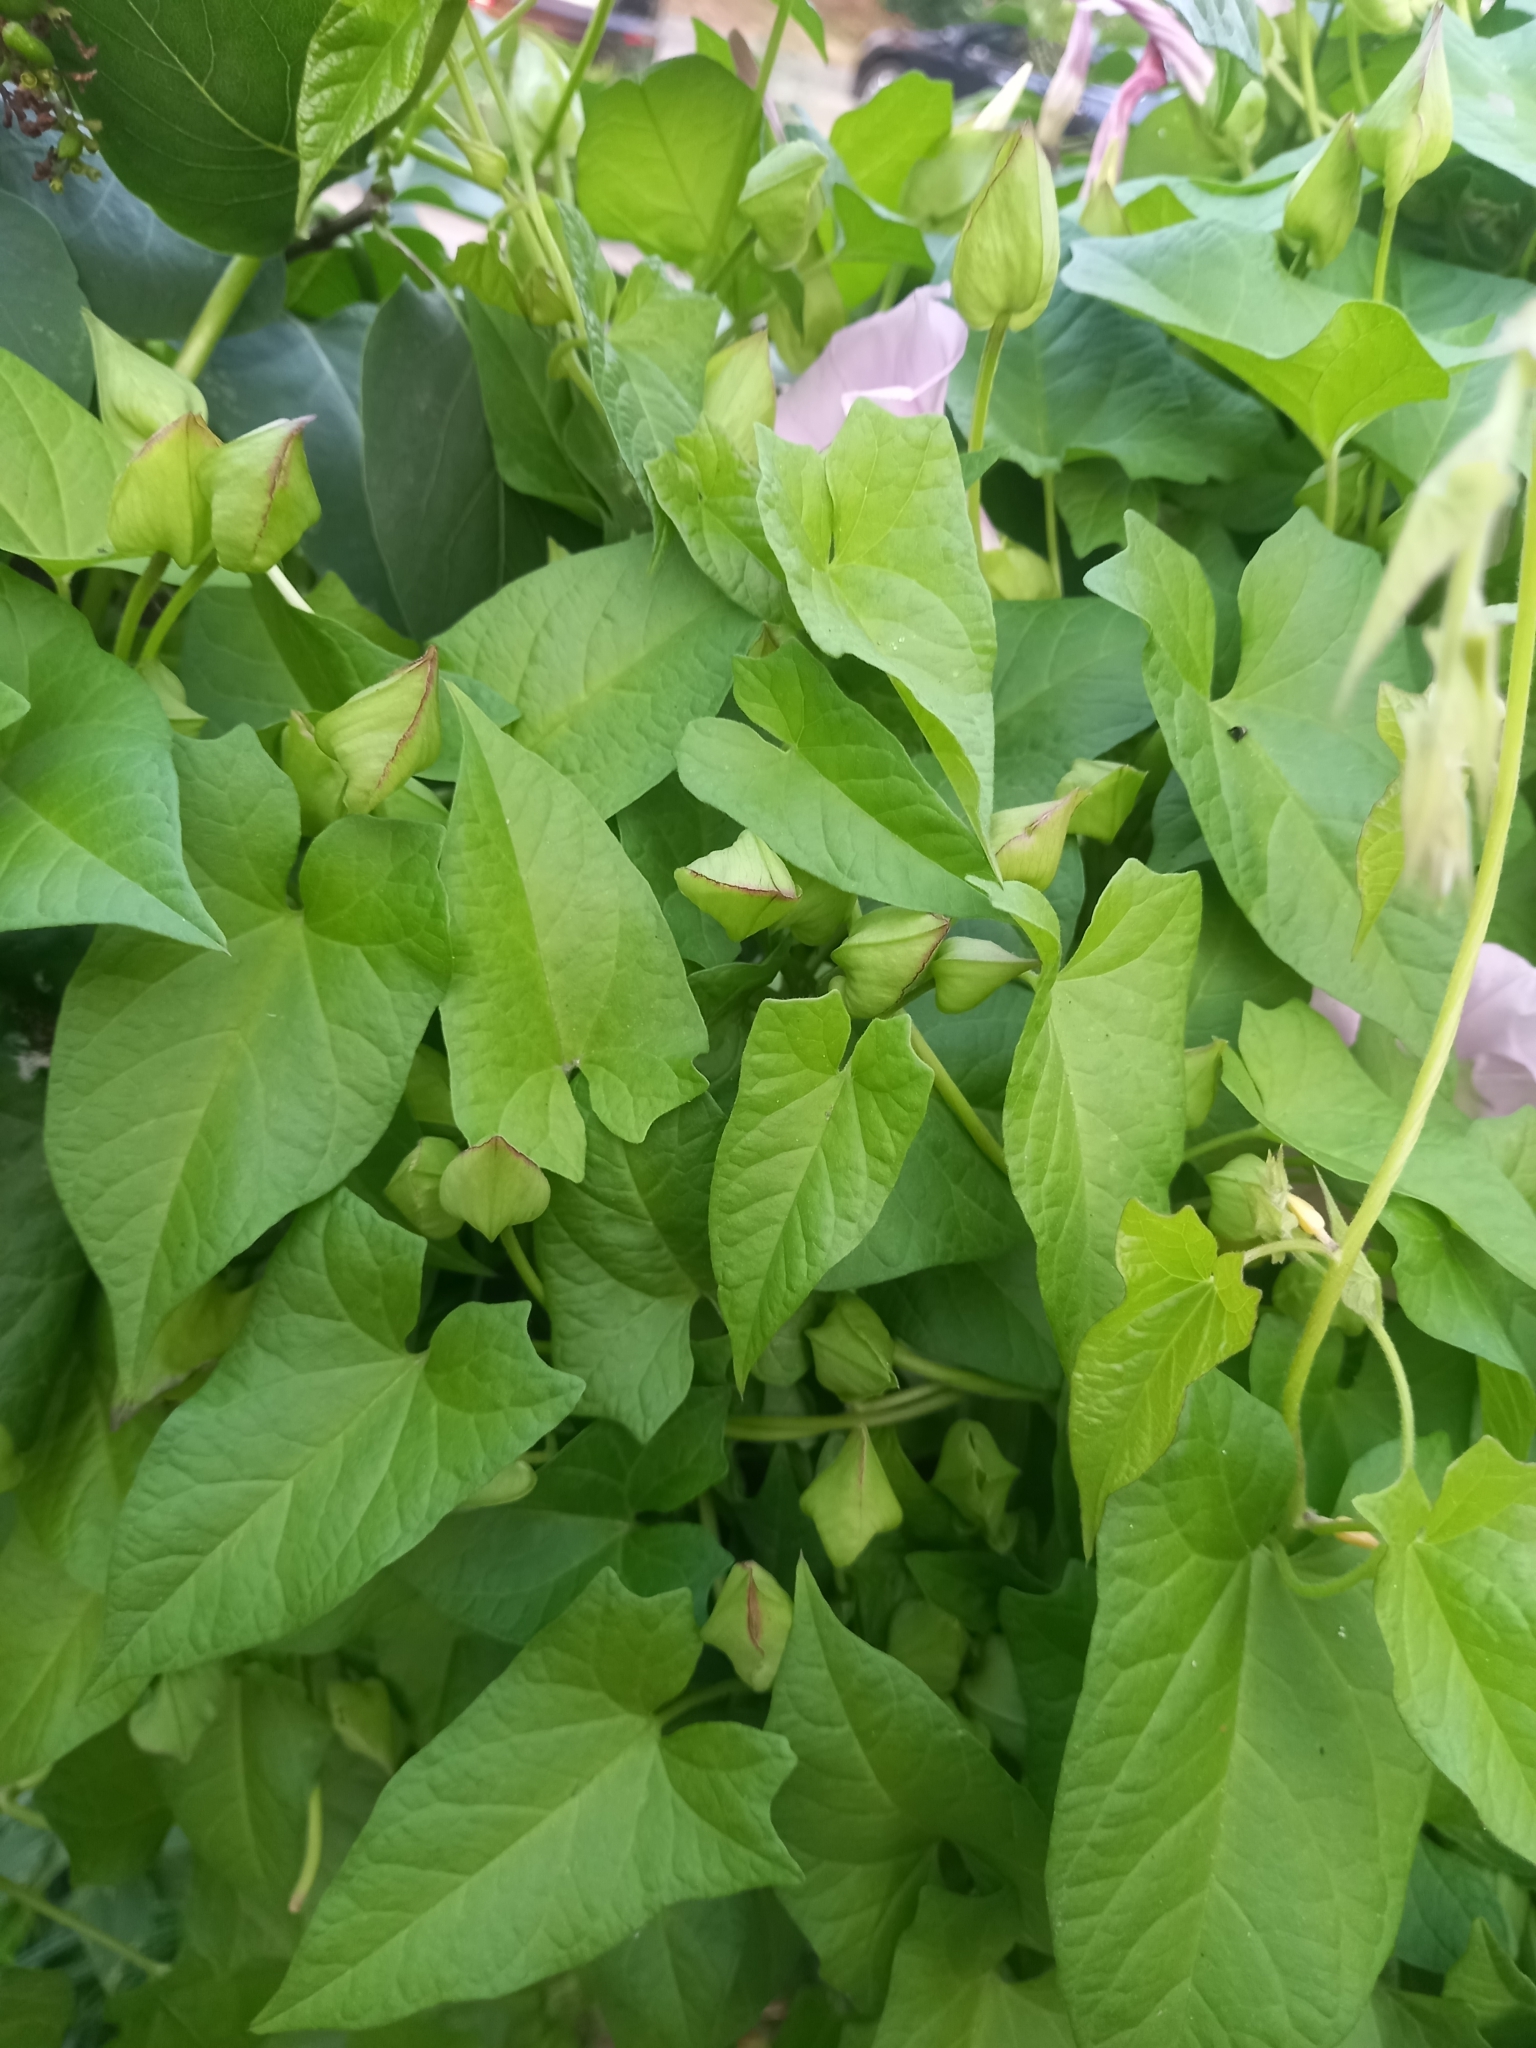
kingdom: Plantae
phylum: Tracheophyta
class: Magnoliopsida
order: Solanales
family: Convolvulaceae
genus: Calystegia
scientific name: Calystegia sepium
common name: Hedge bindweed
